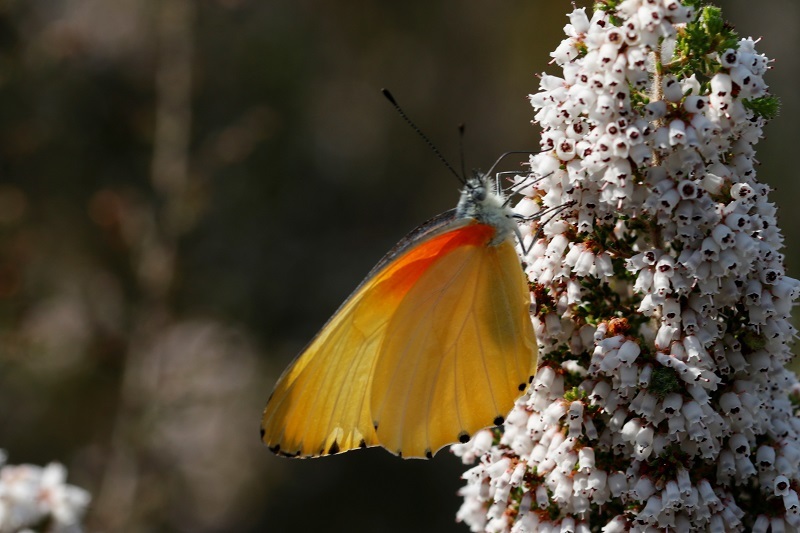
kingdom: Animalia
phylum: Arthropoda
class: Insecta
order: Lepidoptera
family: Pieridae
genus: Mylothris
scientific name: Mylothris agathina
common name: Eastern dotted border
